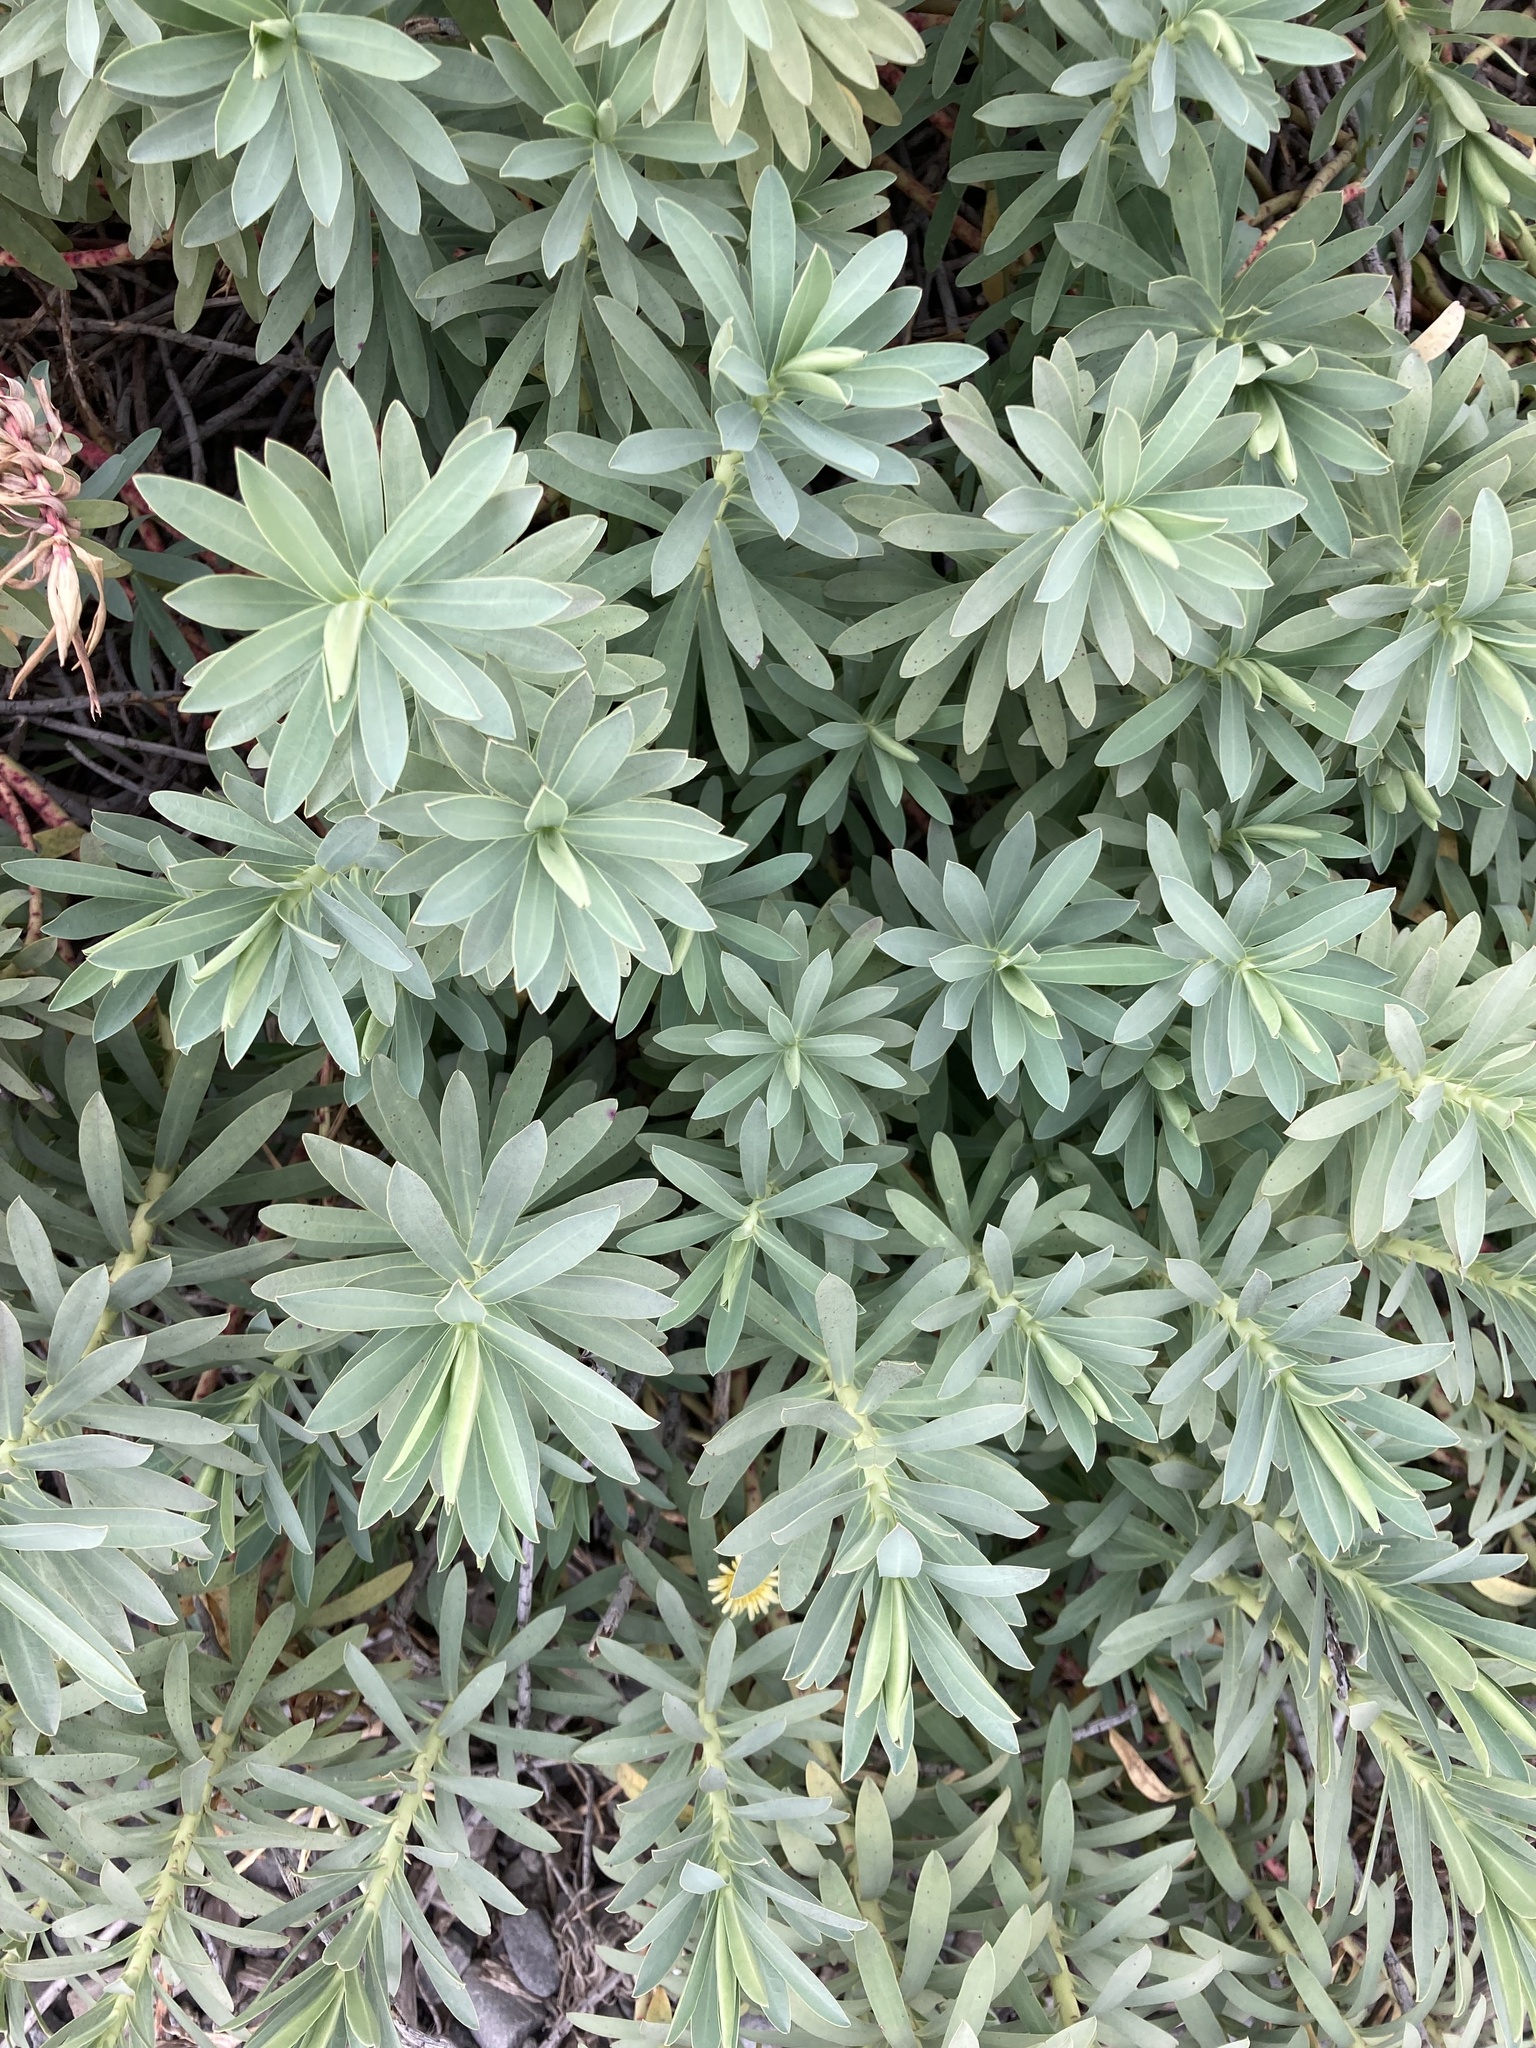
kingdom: Plantae
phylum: Tracheophyta
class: Magnoliopsida
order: Malpighiales
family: Euphorbiaceae
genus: Euphorbia
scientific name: Euphorbia glauca
